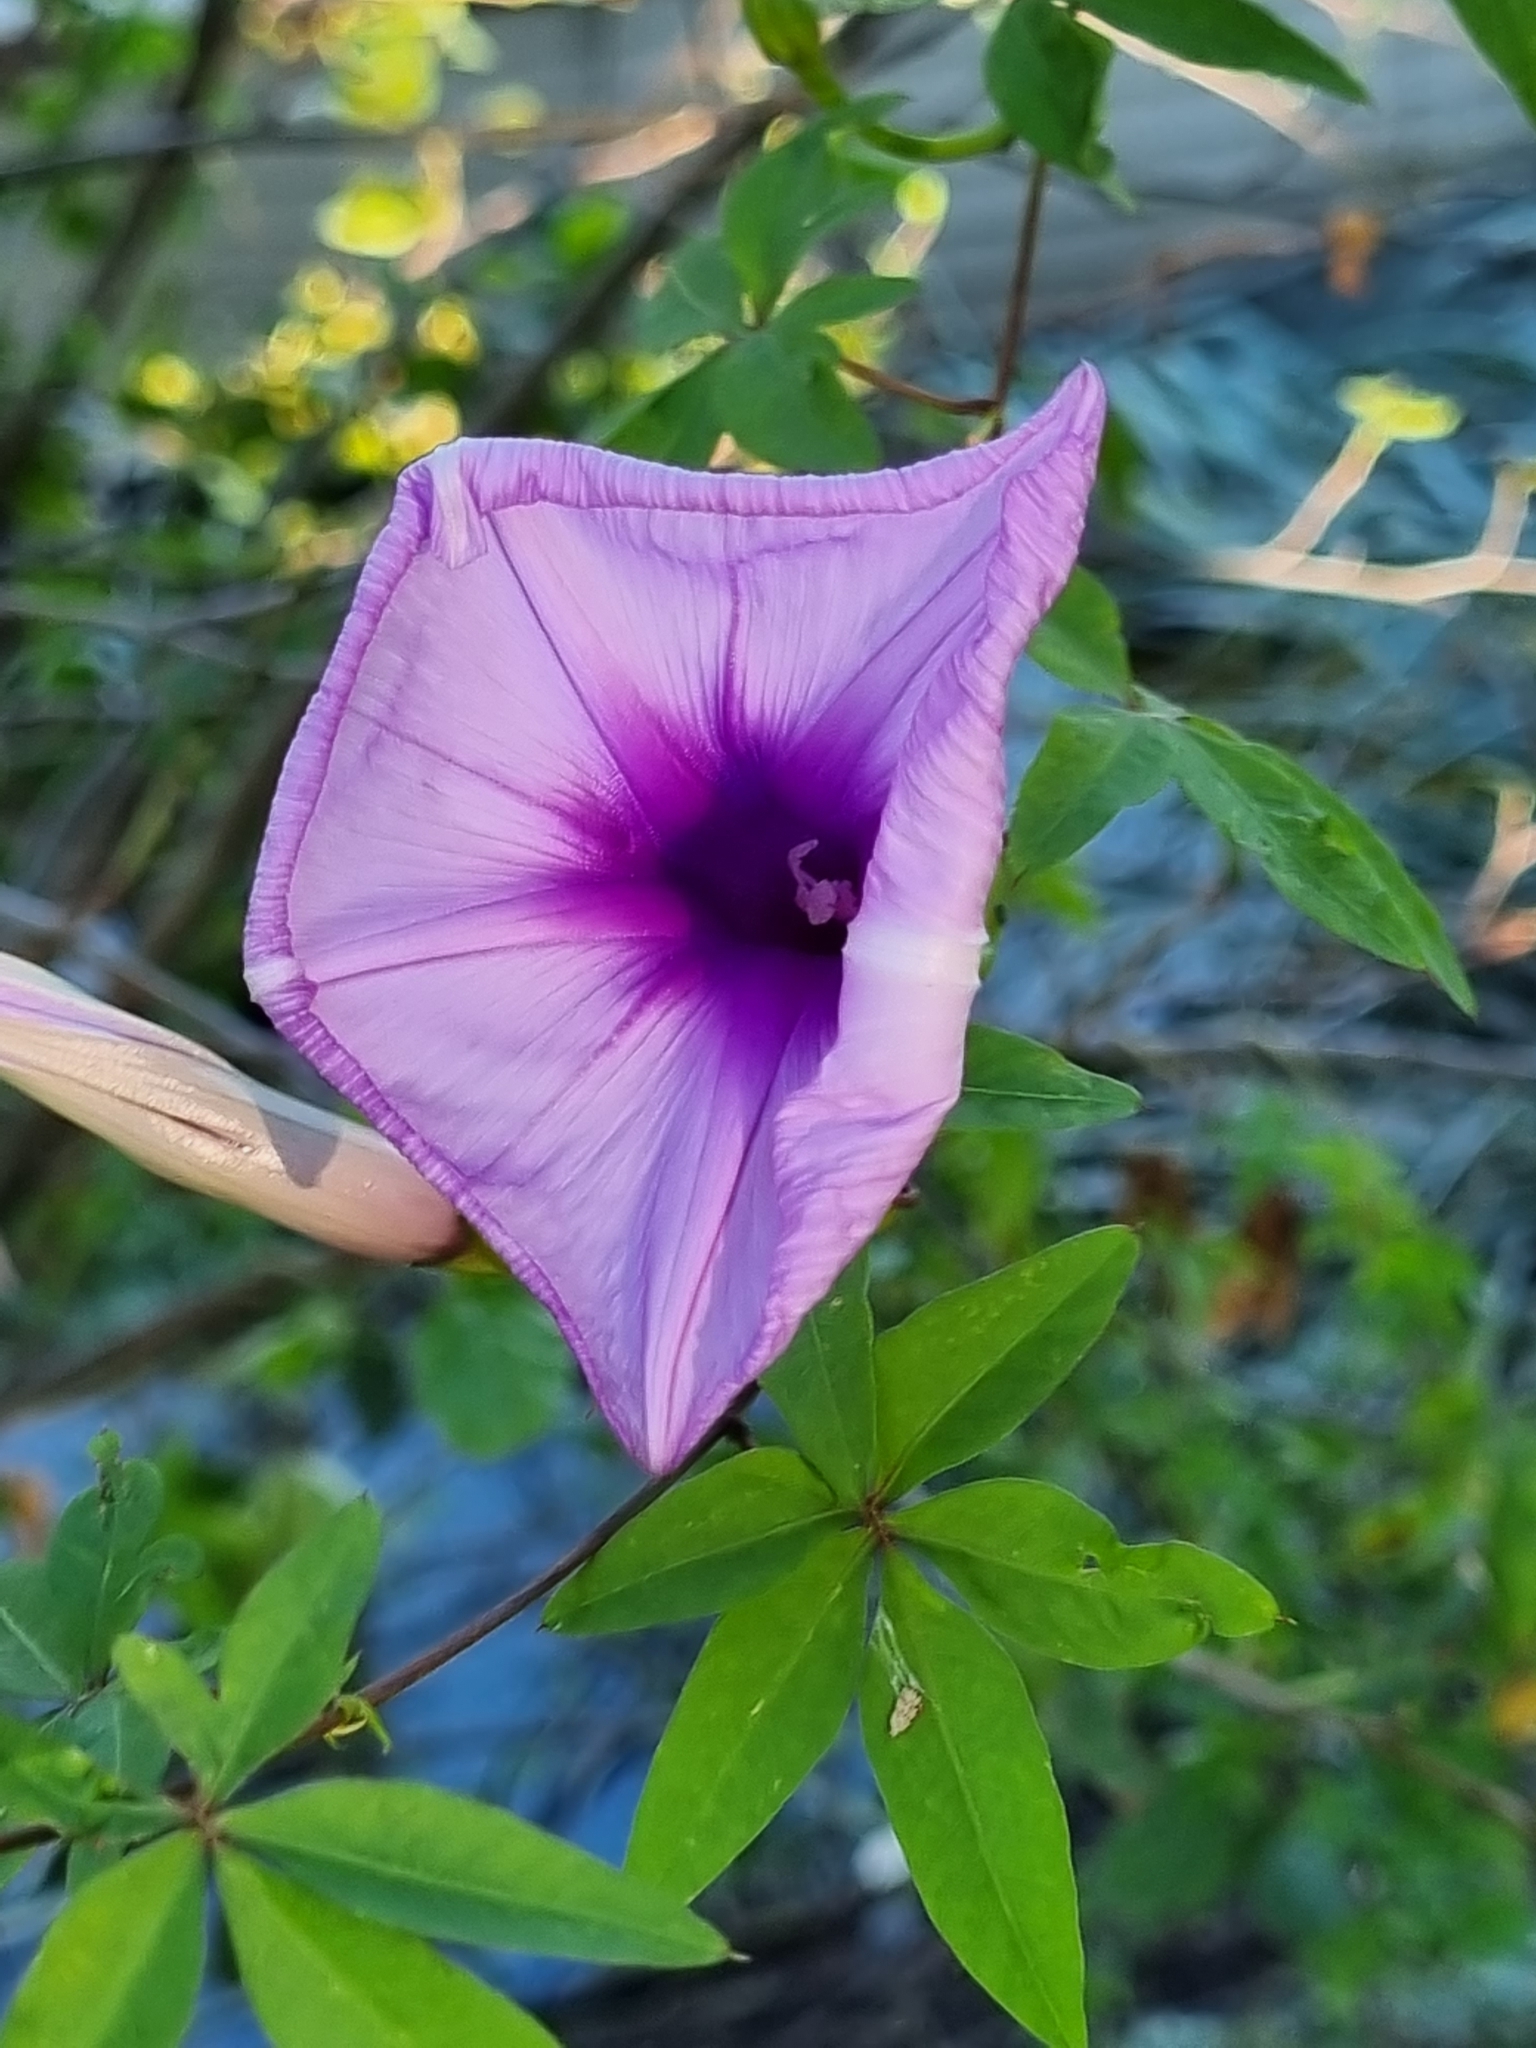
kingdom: Plantae
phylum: Tracheophyta
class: Magnoliopsida
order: Solanales
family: Convolvulaceae
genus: Ipomoea
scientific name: Ipomoea cairica
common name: Mile a minute vine
